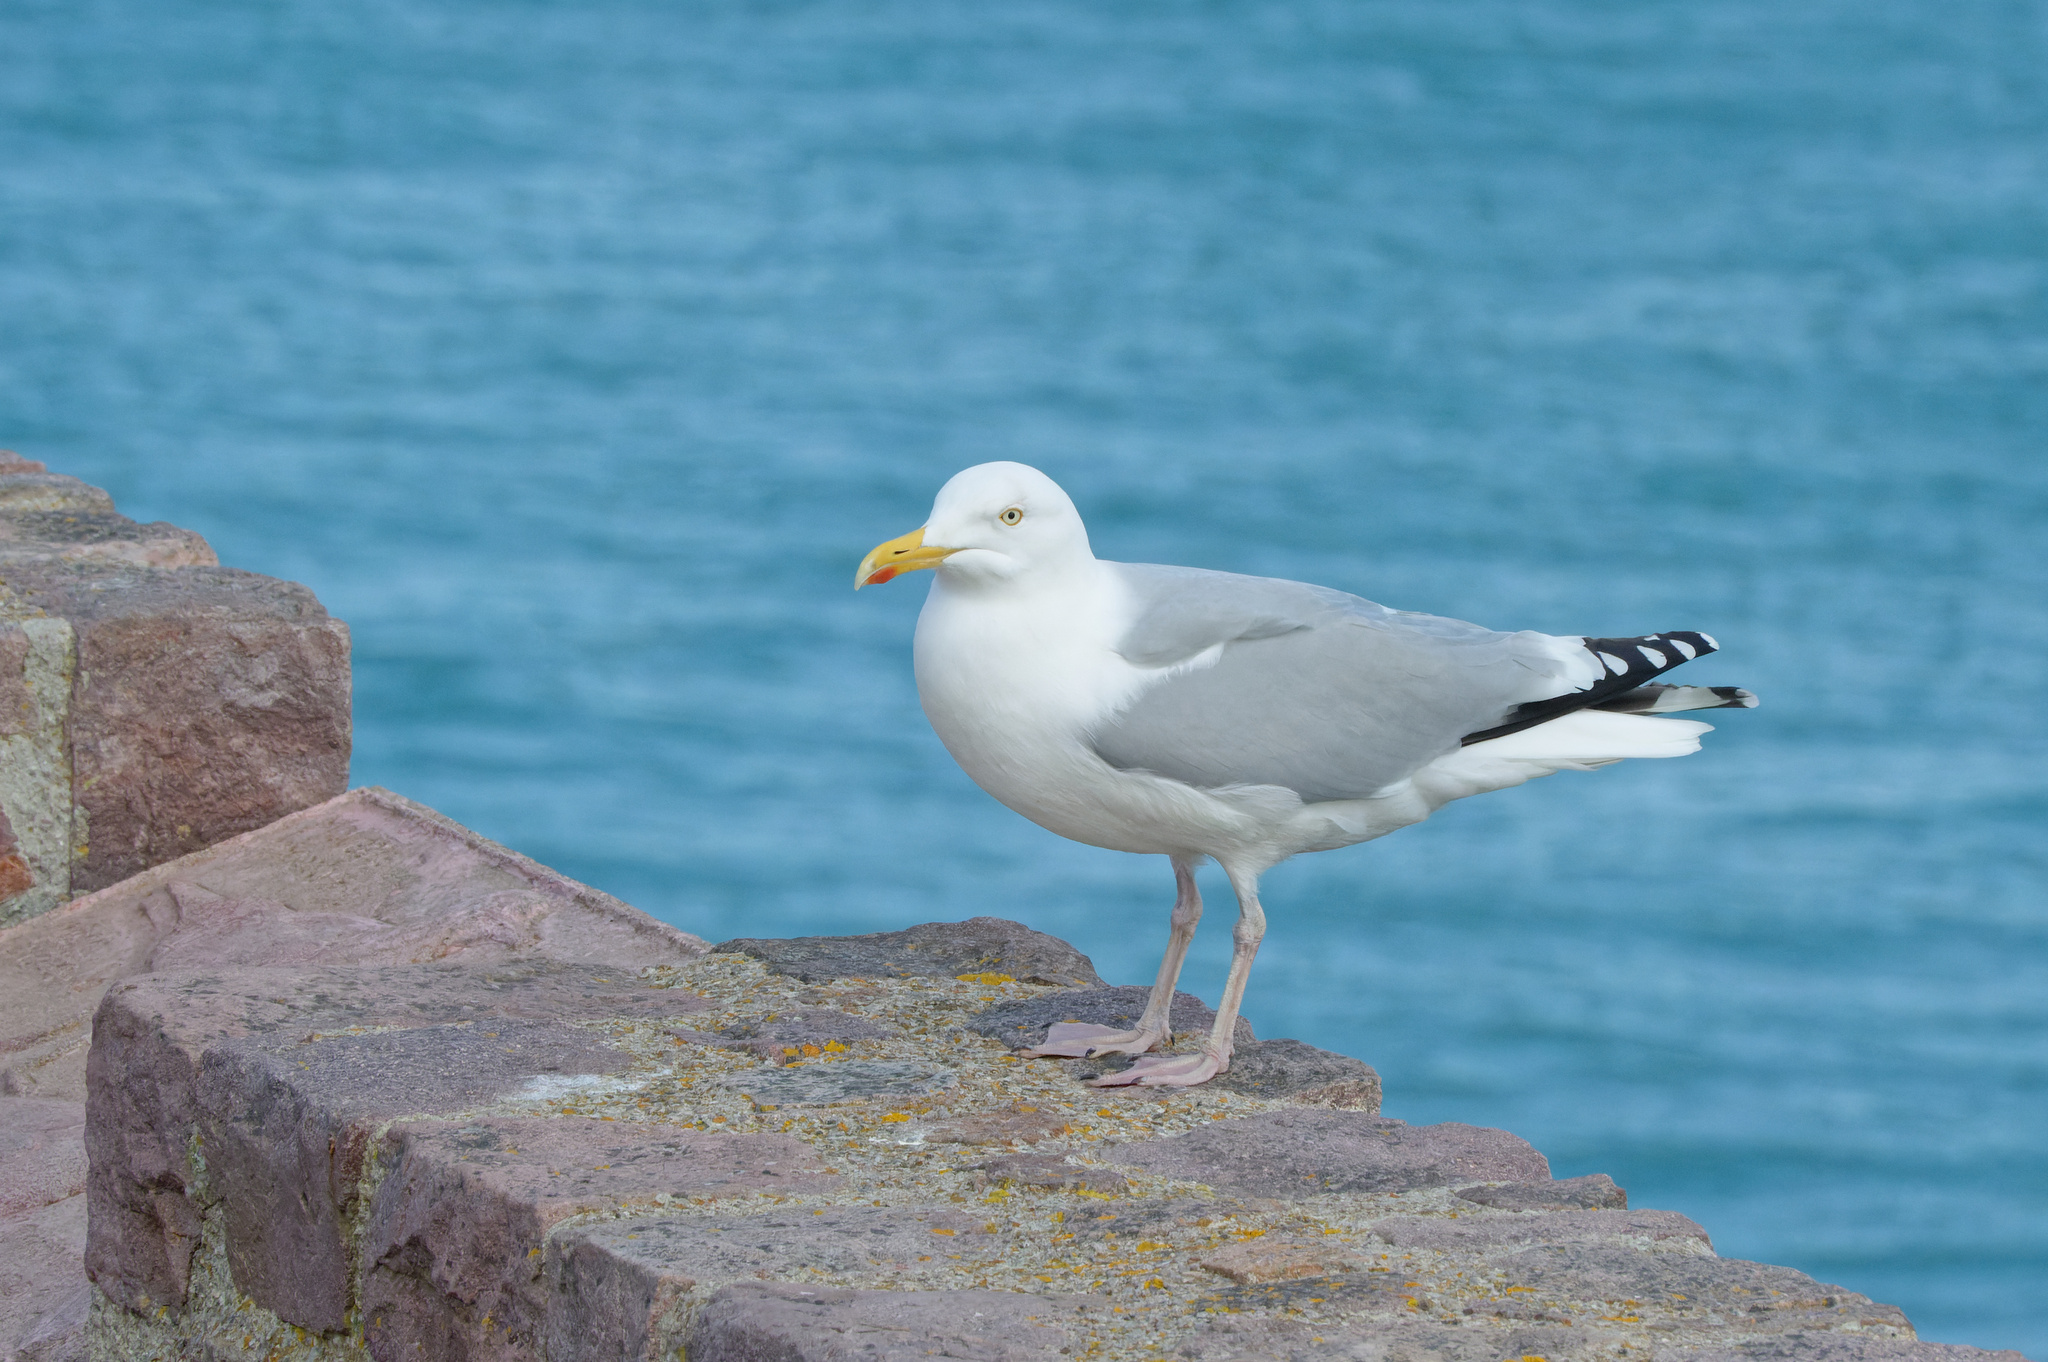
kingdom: Animalia
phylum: Chordata
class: Aves
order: Charadriiformes
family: Laridae
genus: Larus
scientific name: Larus argentatus
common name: Herring gull
